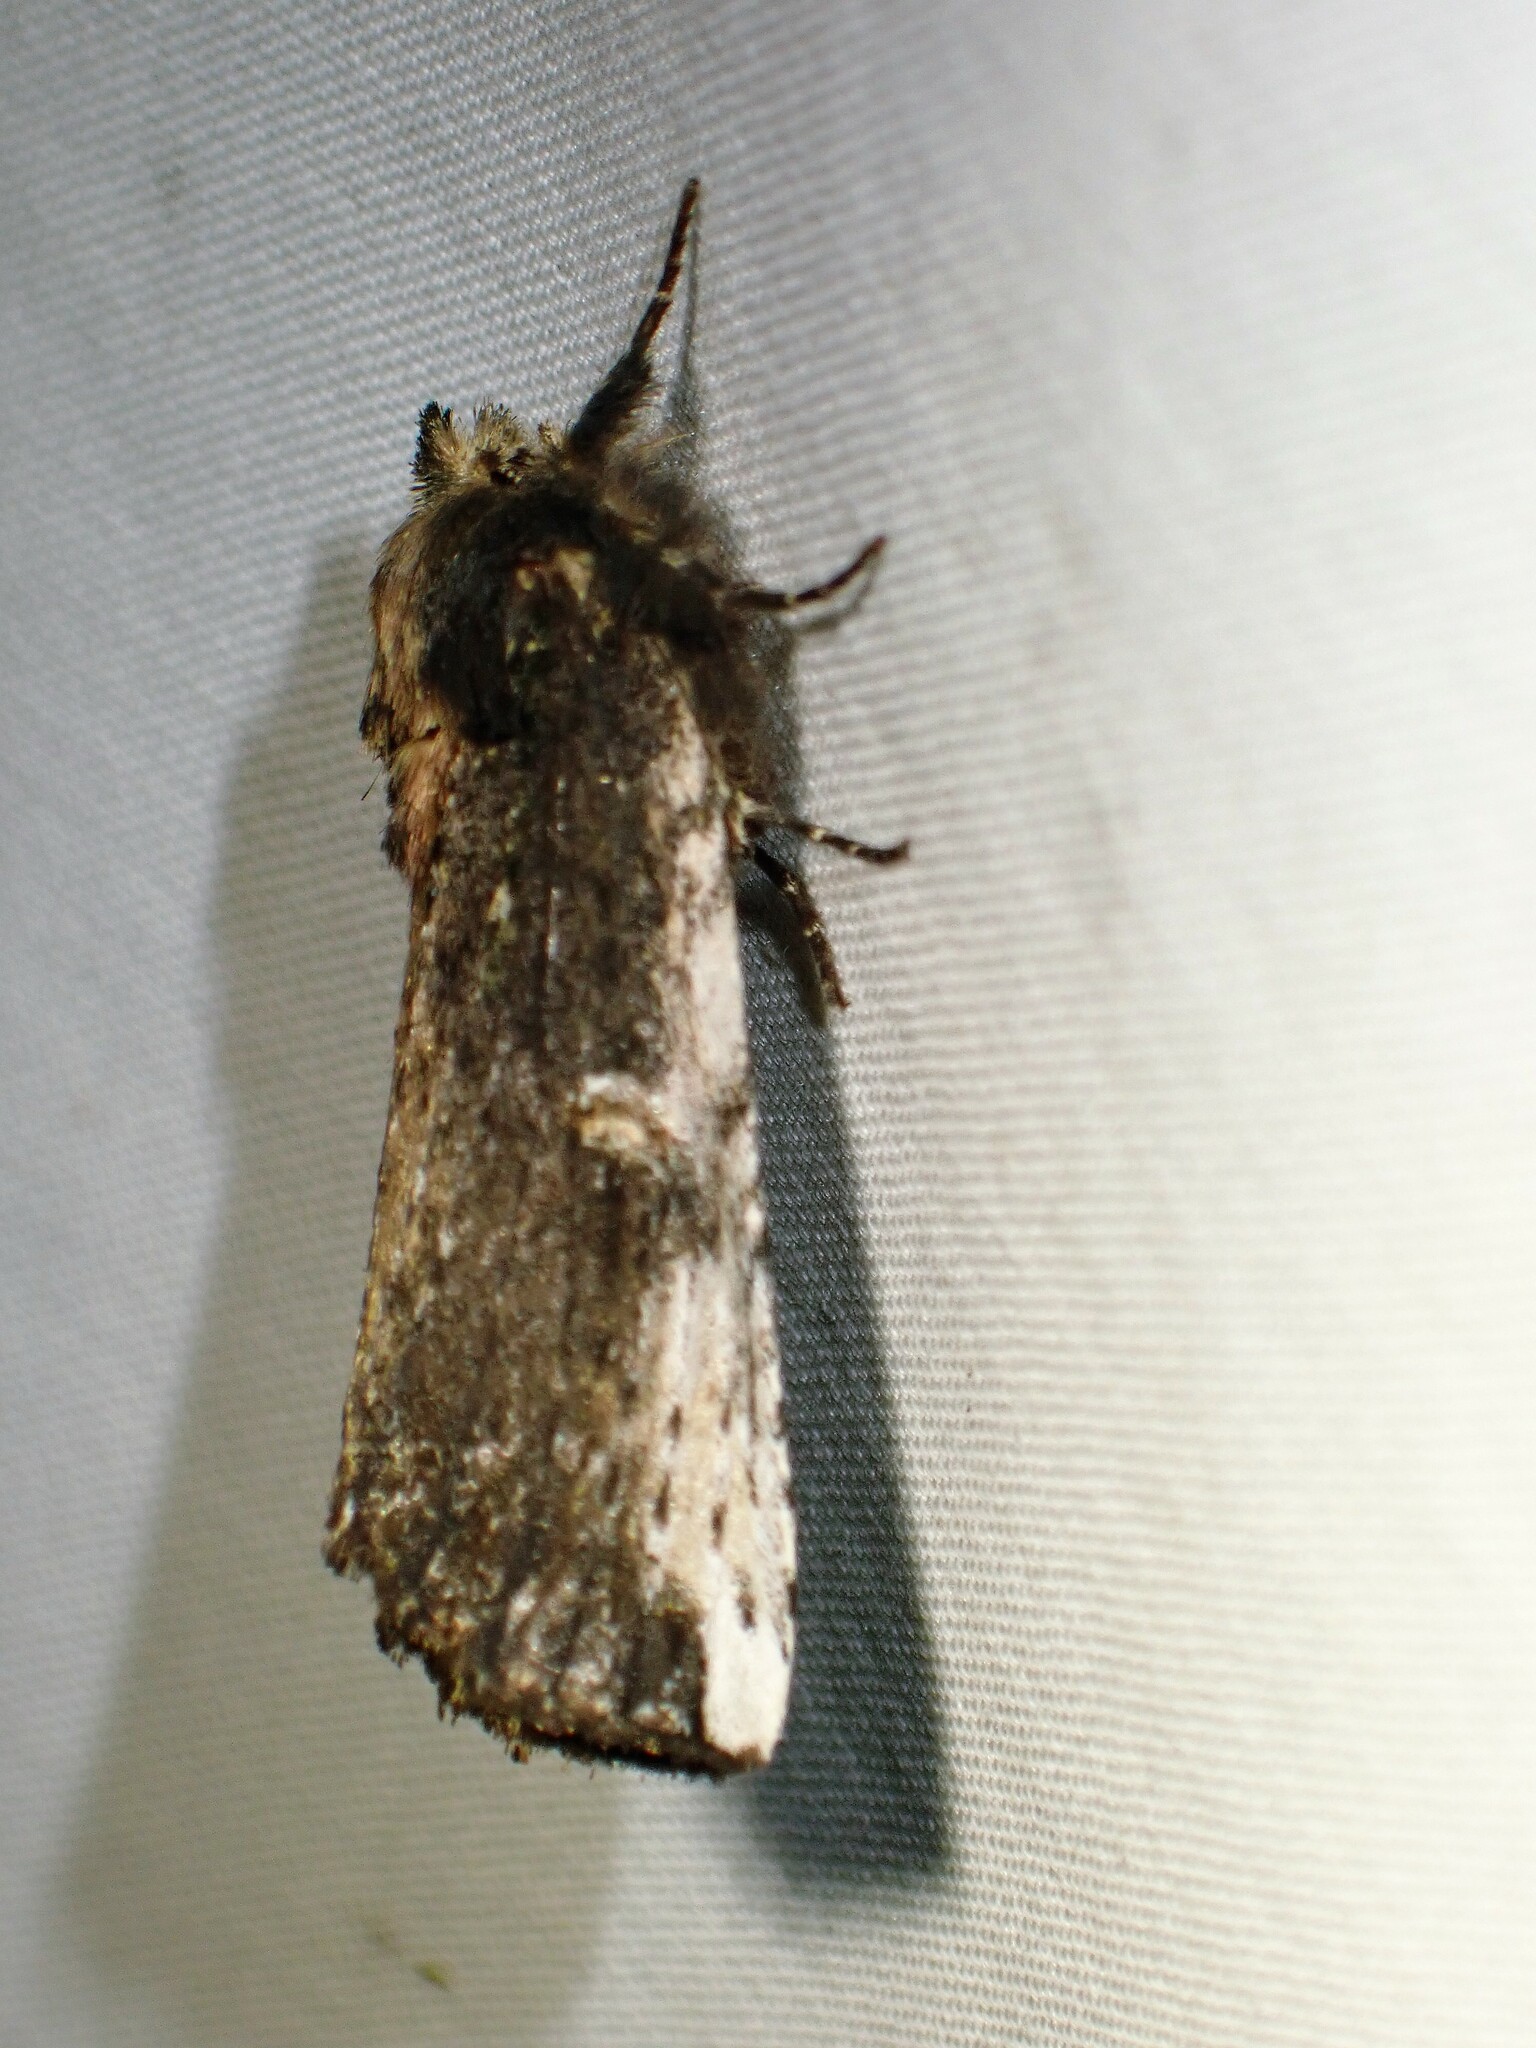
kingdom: Animalia
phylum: Arthropoda
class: Insecta
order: Lepidoptera
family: Notodontidae
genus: Schizura
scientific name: Schizura ipomaeae
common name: Morning-glory prominent
